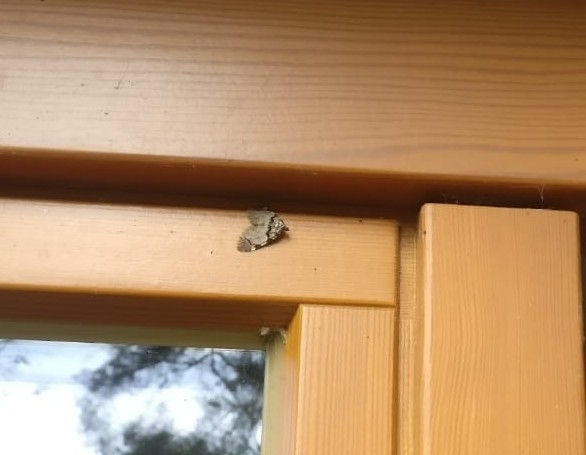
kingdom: Animalia
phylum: Arthropoda
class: Insecta
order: Lepidoptera
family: Geometridae
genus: Anticlea
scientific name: Anticlea derivata
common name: Streamer
